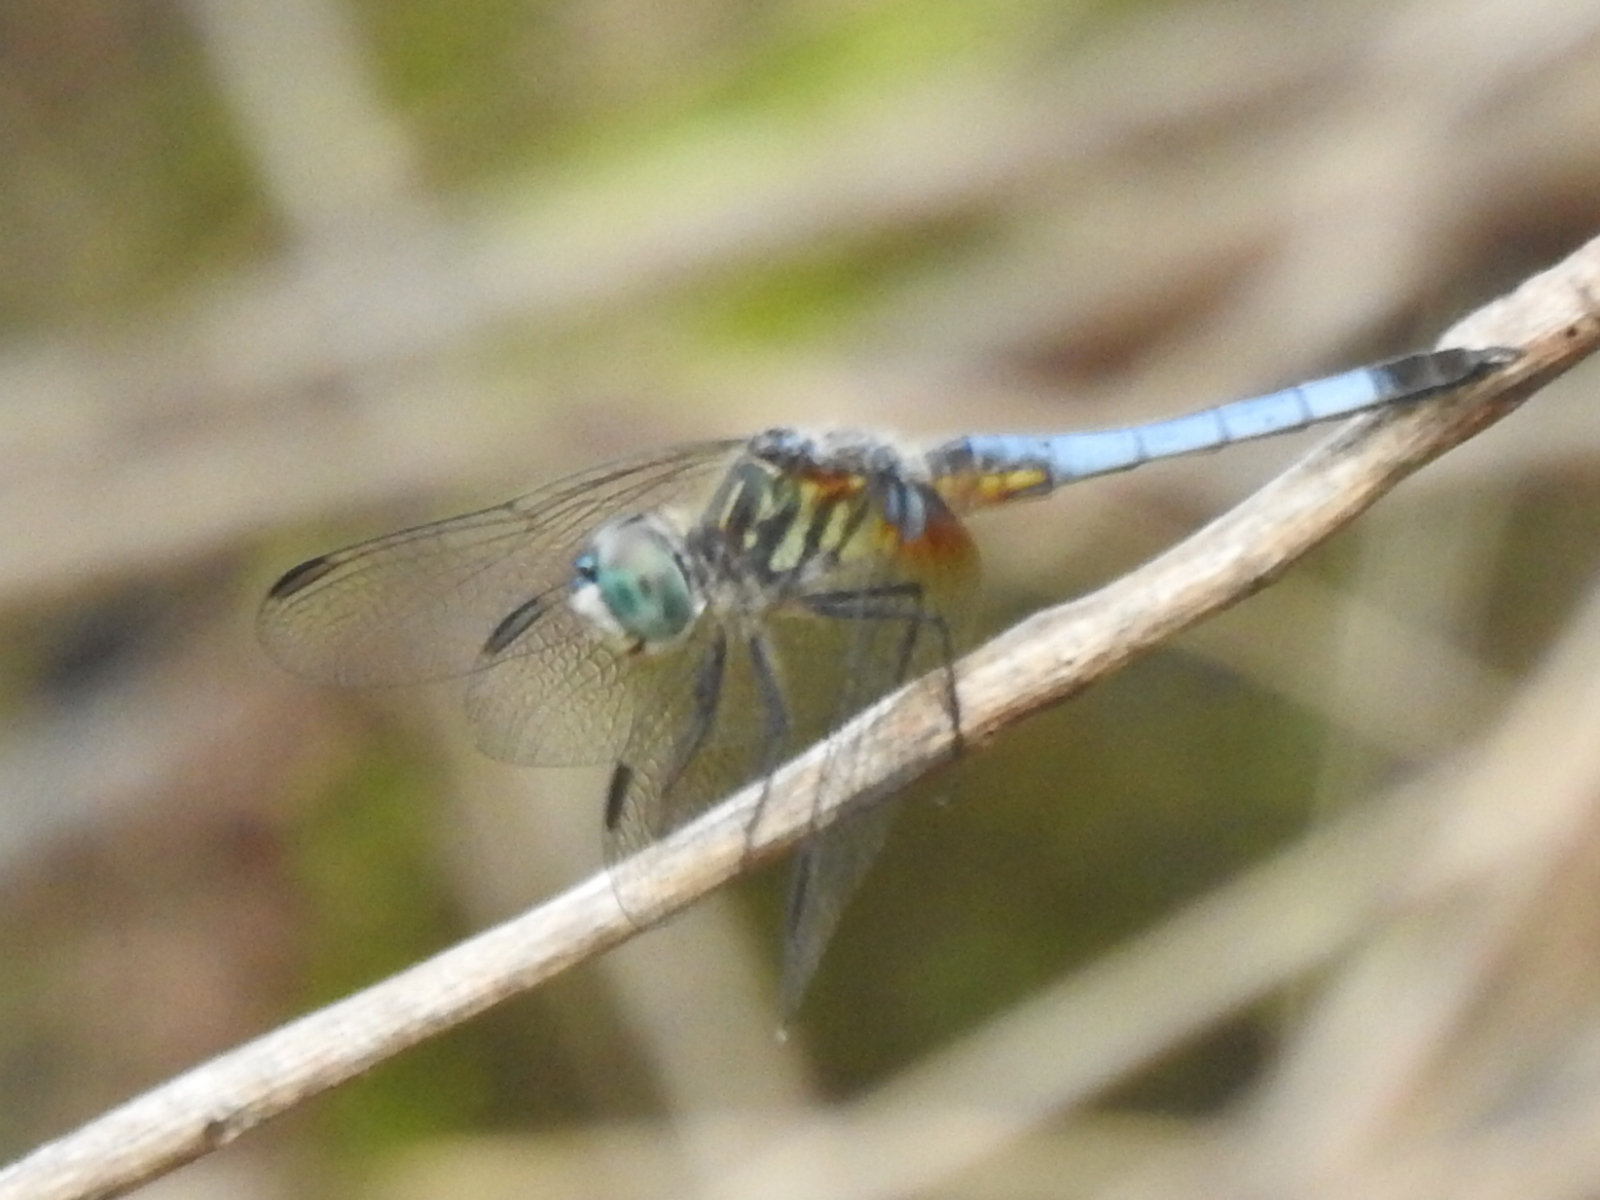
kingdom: Animalia
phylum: Arthropoda
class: Insecta
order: Odonata
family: Libellulidae
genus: Pachydiplax
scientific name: Pachydiplax longipennis
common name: Blue dasher
